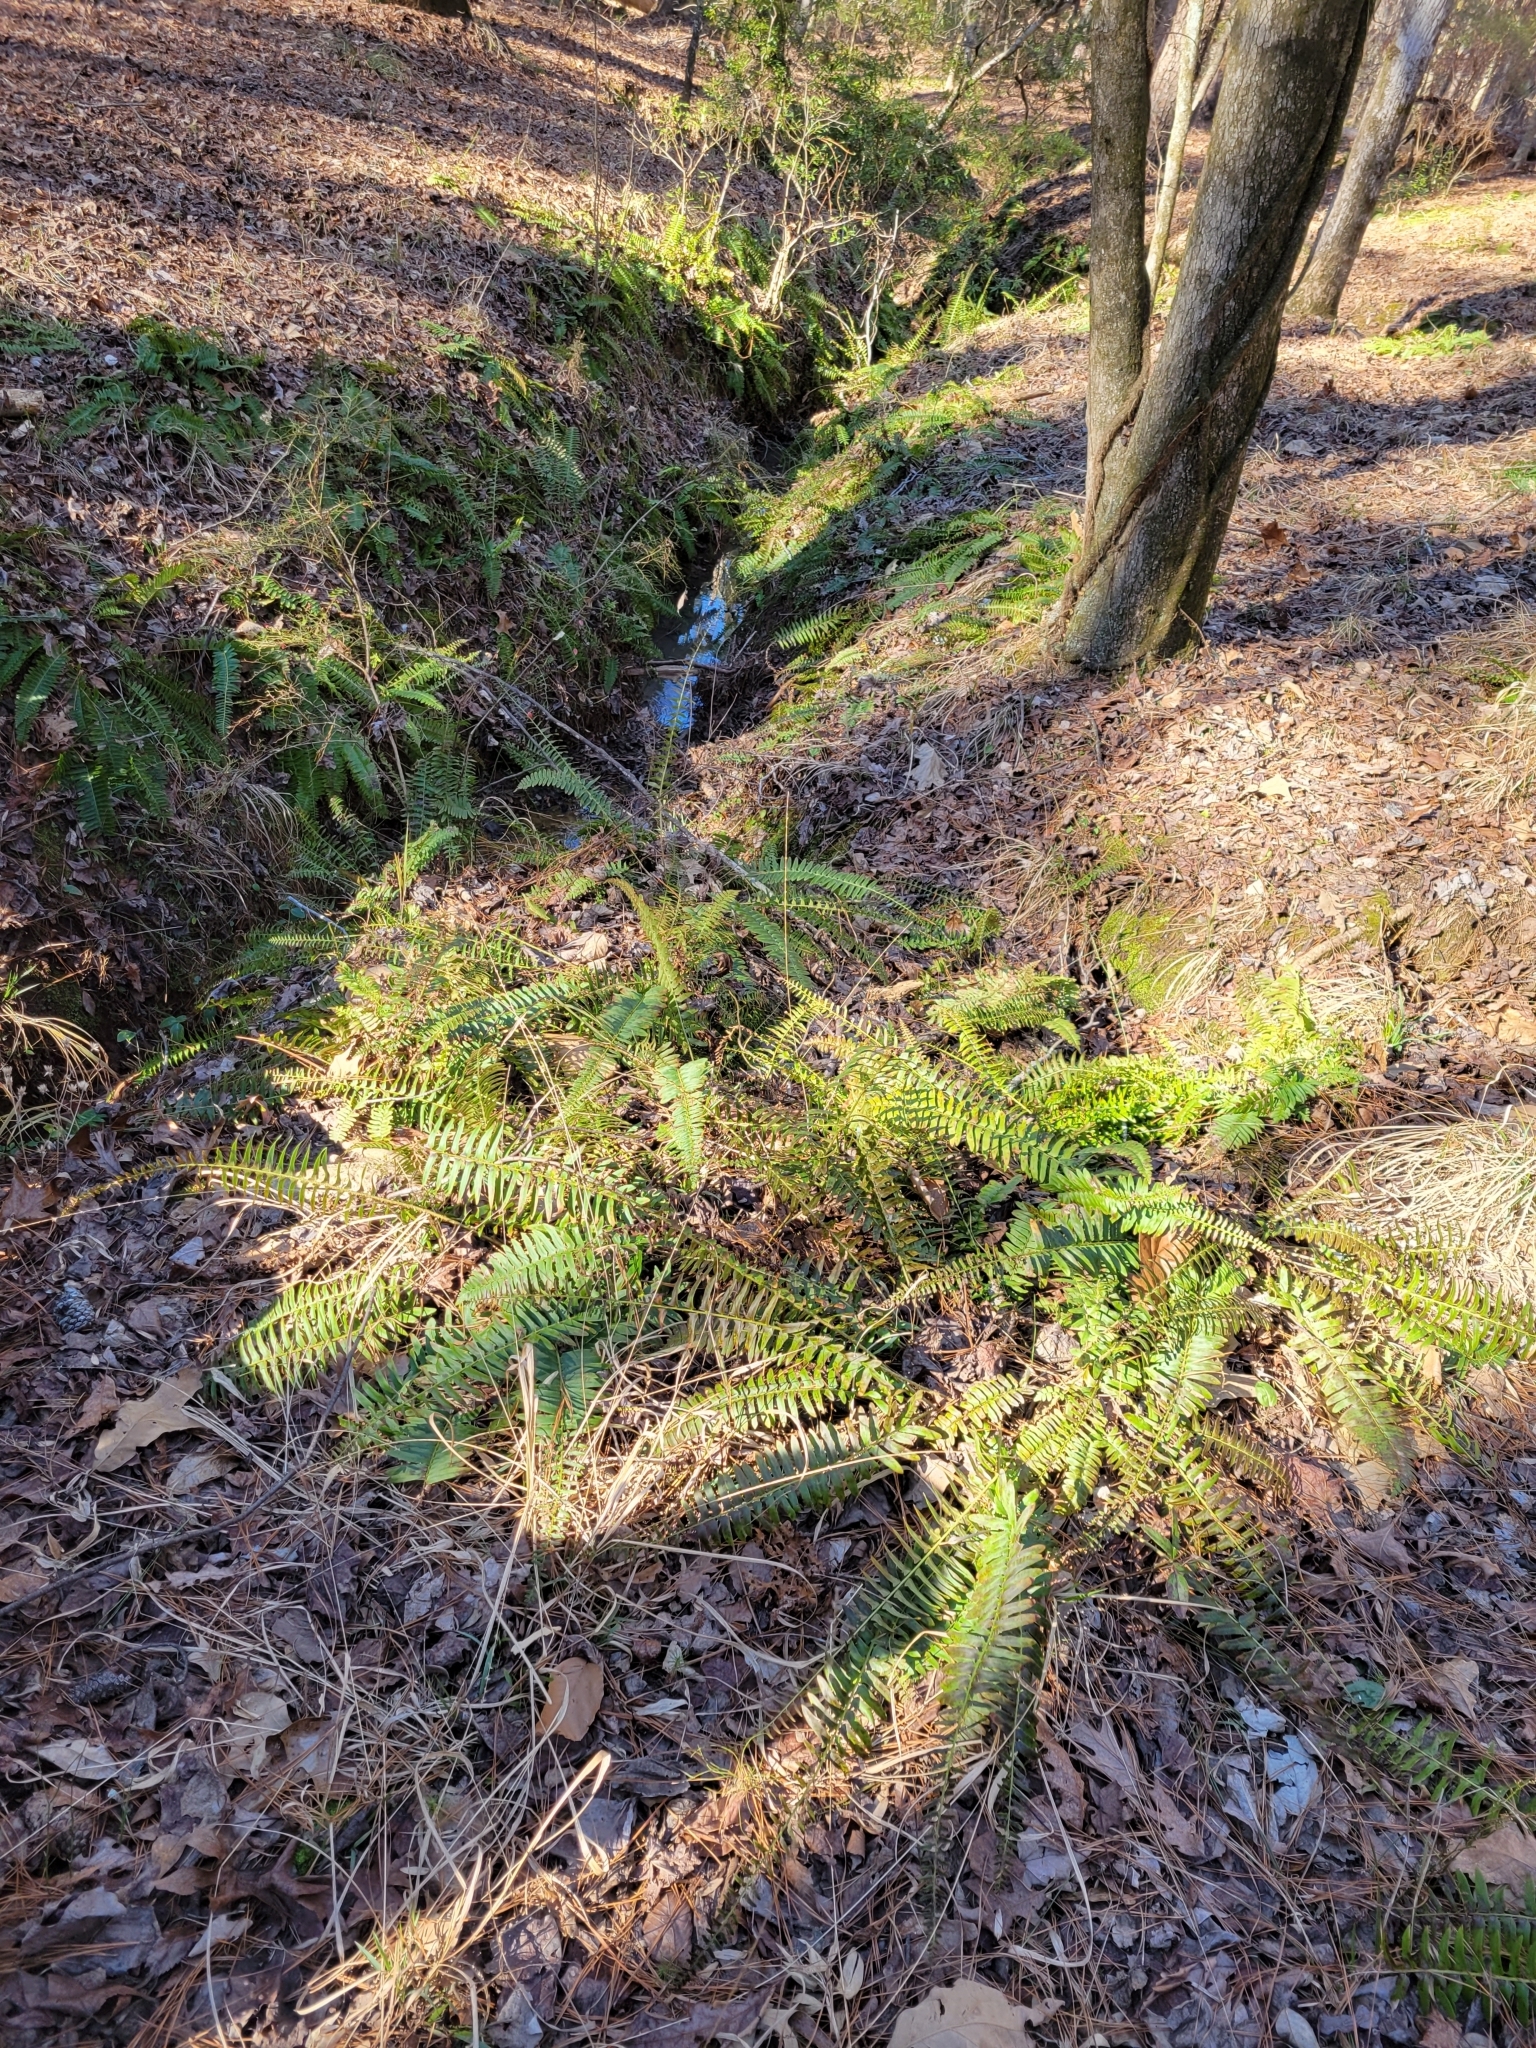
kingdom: Plantae
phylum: Tracheophyta
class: Polypodiopsida
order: Polypodiales
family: Dryopteridaceae
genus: Polystichum
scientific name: Polystichum acrostichoides
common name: Christmas fern
